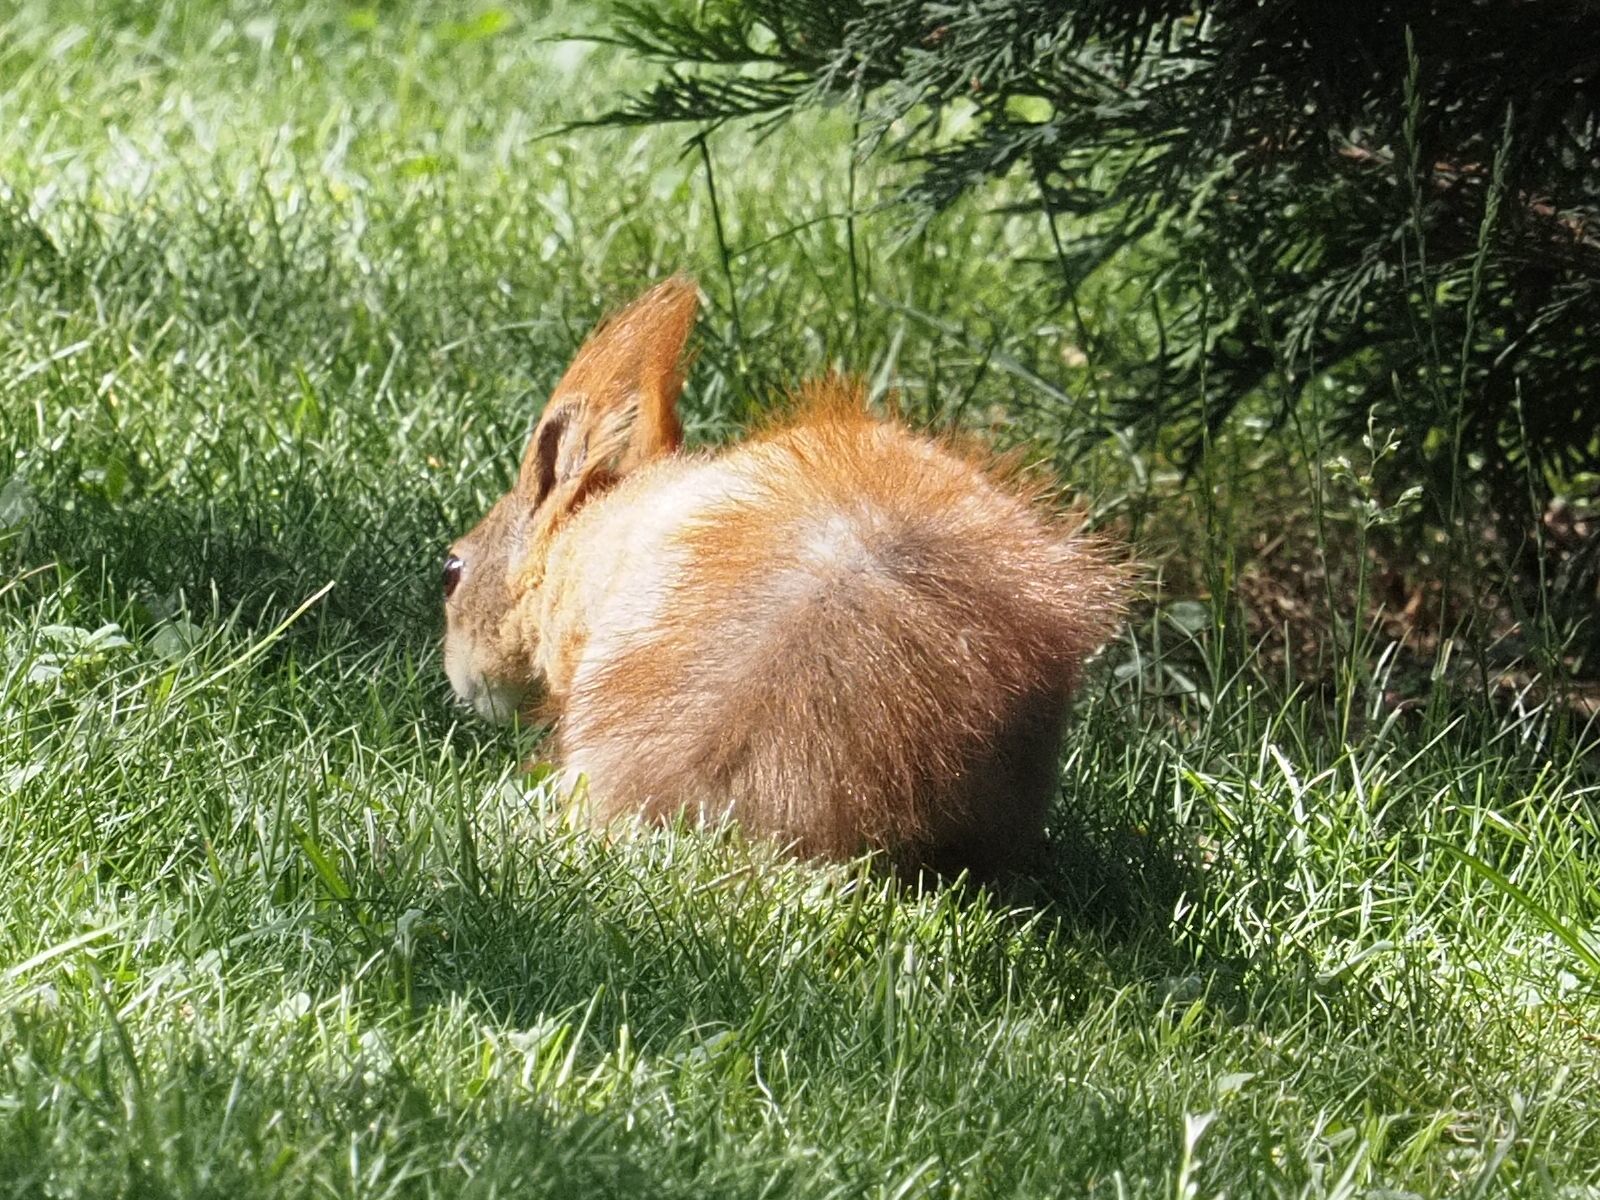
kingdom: Animalia
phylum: Chordata
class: Mammalia
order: Rodentia
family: Sciuridae
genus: Sciurus
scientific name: Sciurus vulgaris
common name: Eurasian red squirrel
